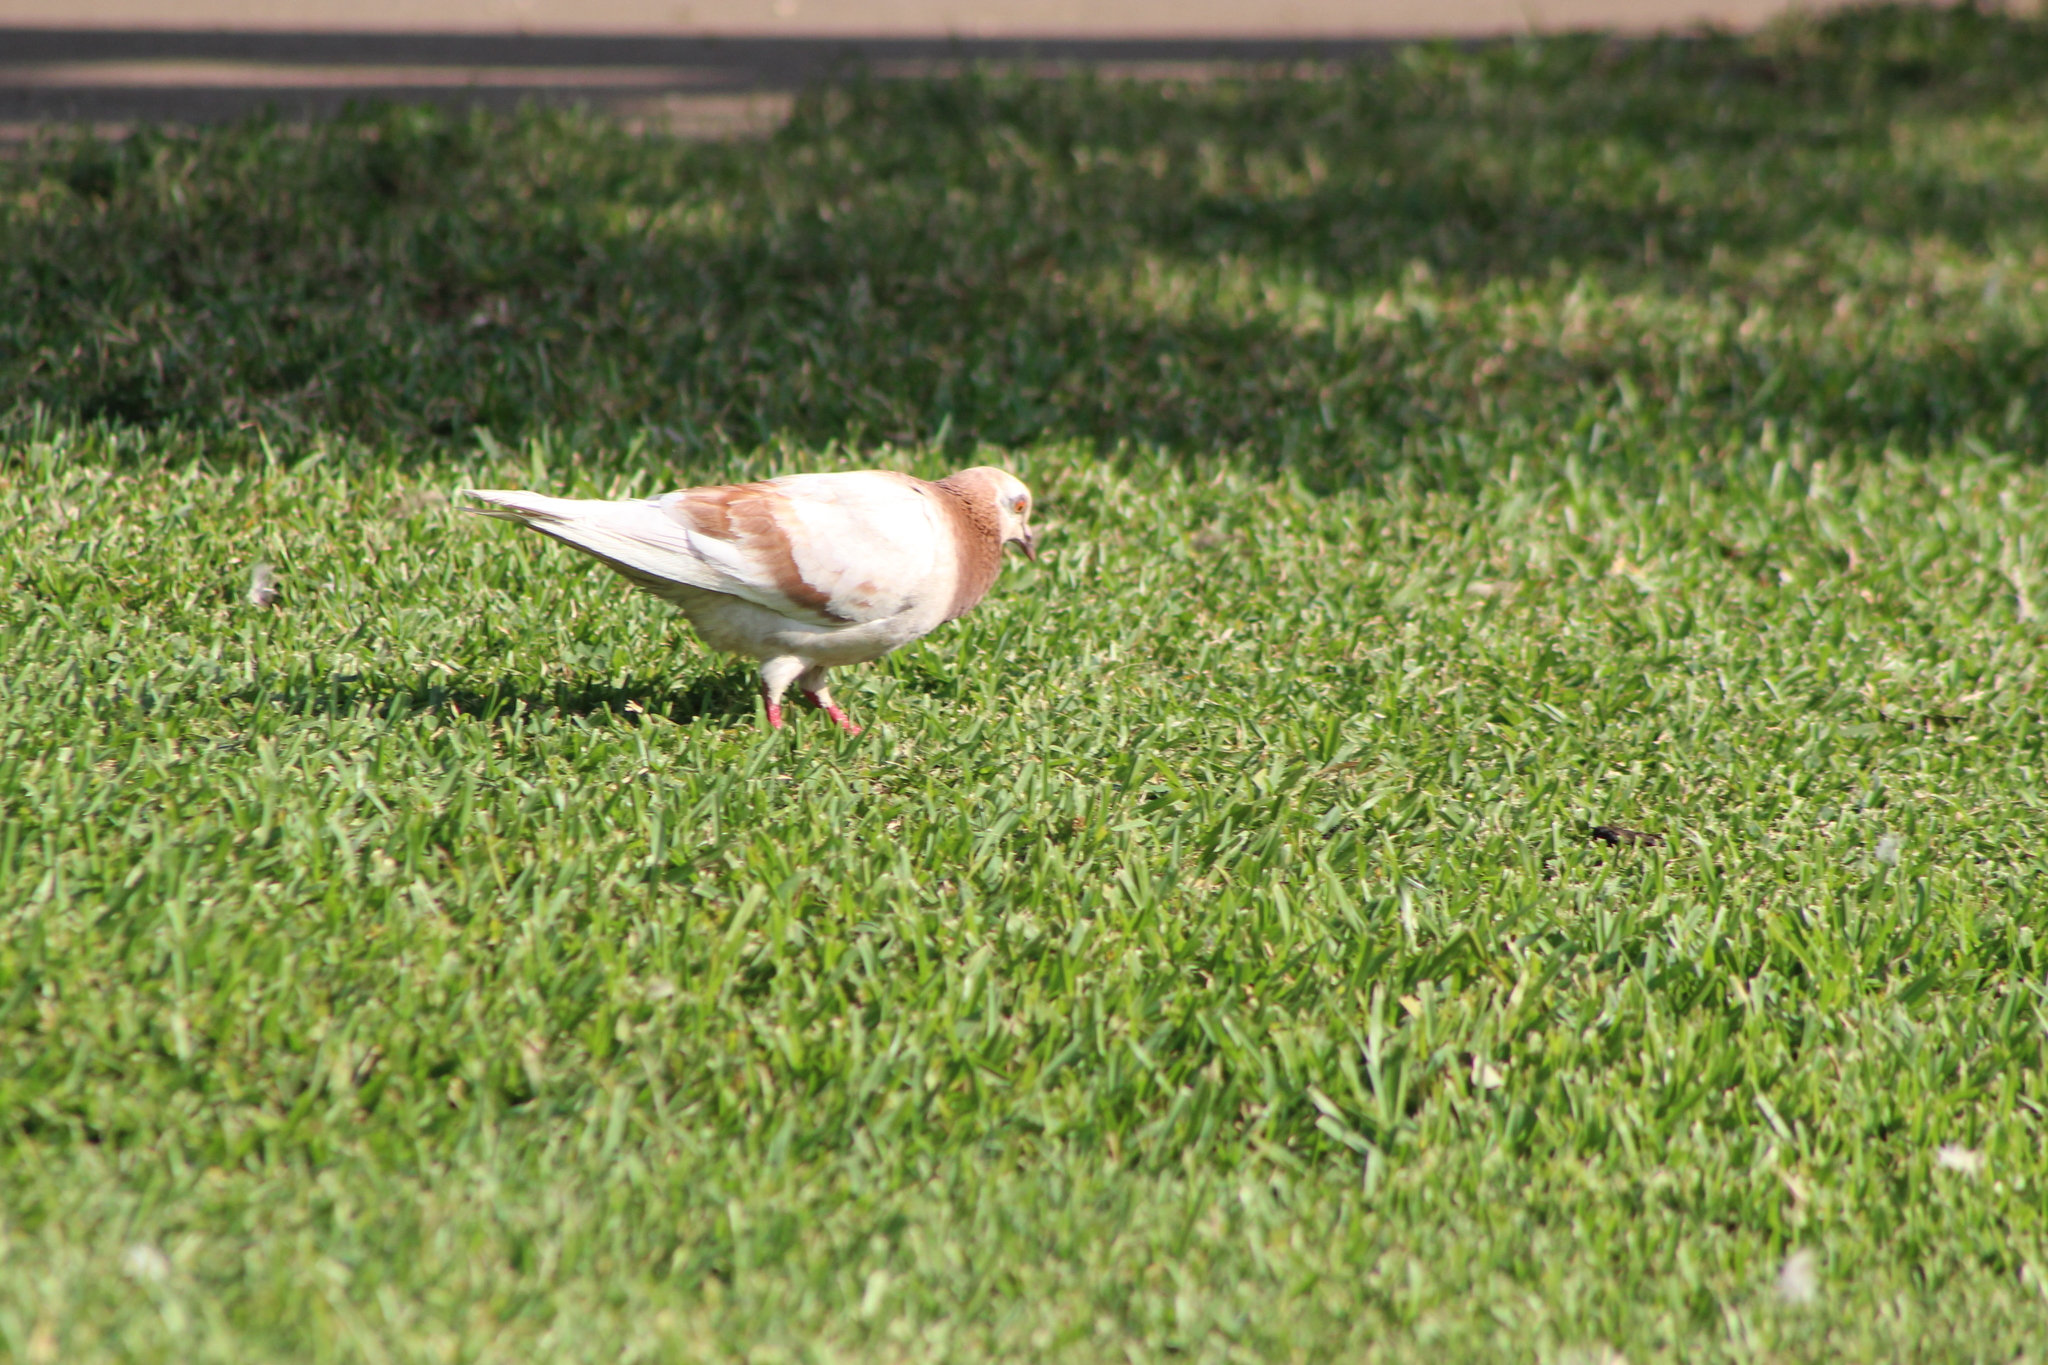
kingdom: Animalia
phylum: Chordata
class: Aves
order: Columbiformes
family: Columbidae
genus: Columba
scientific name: Columba livia
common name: Rock pigeon
